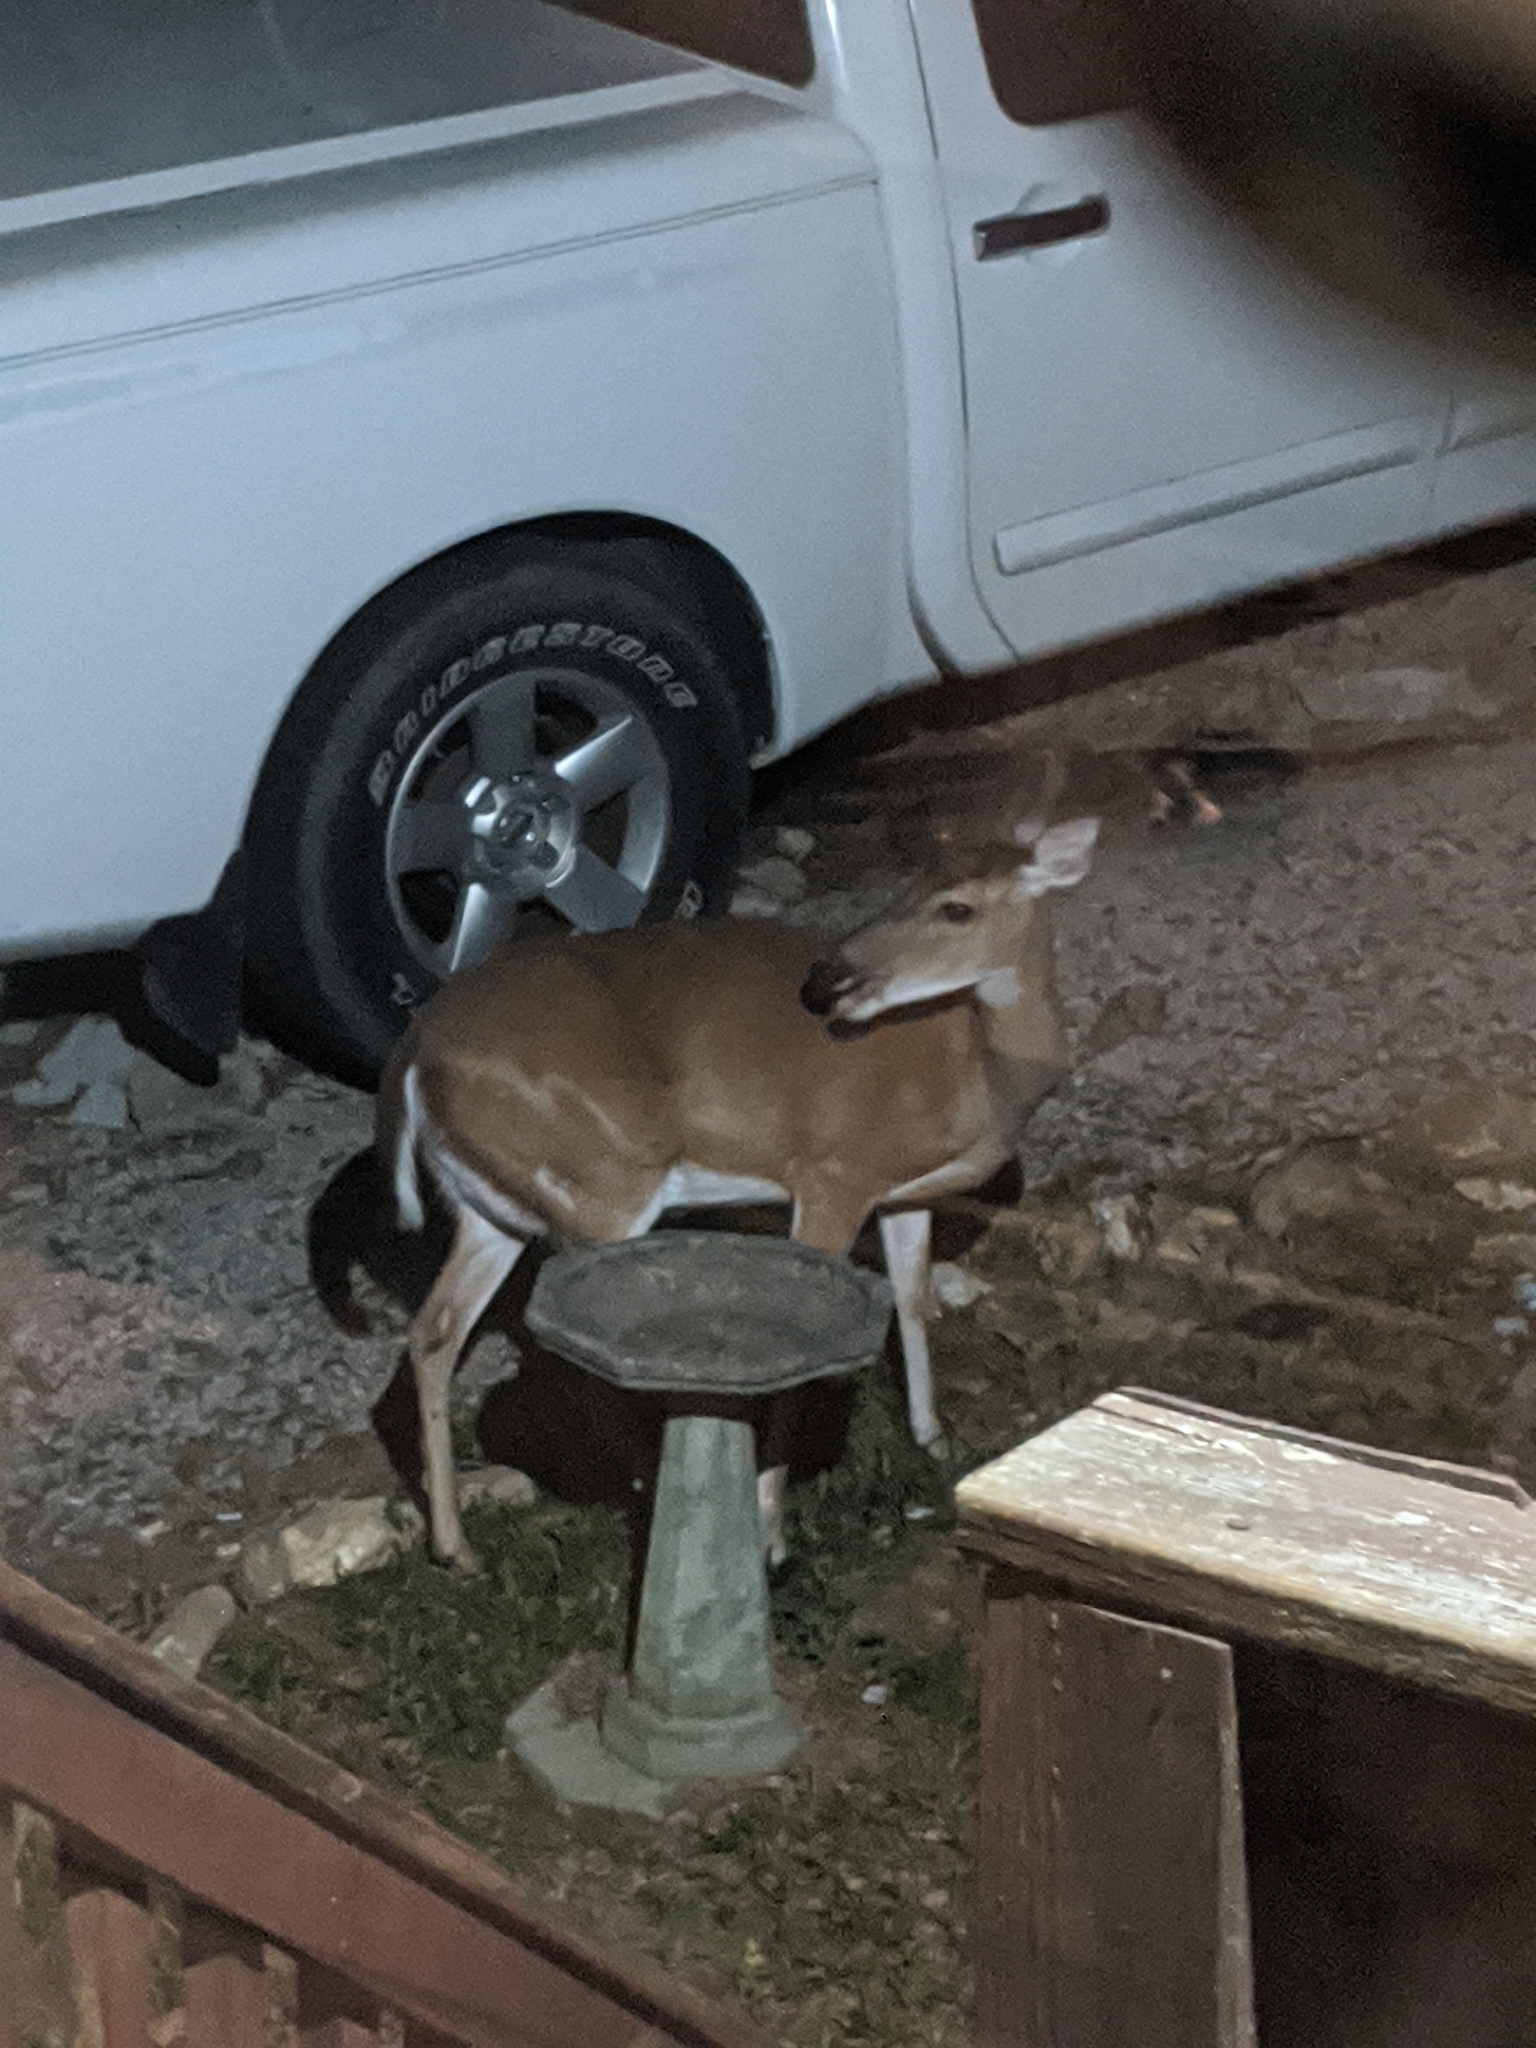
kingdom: Animalia
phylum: Chordata
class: Mammalia
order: Artiodactyla
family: Cervidae
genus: Odocoileus
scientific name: Odocoileus virginianus
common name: White-tailed deer
